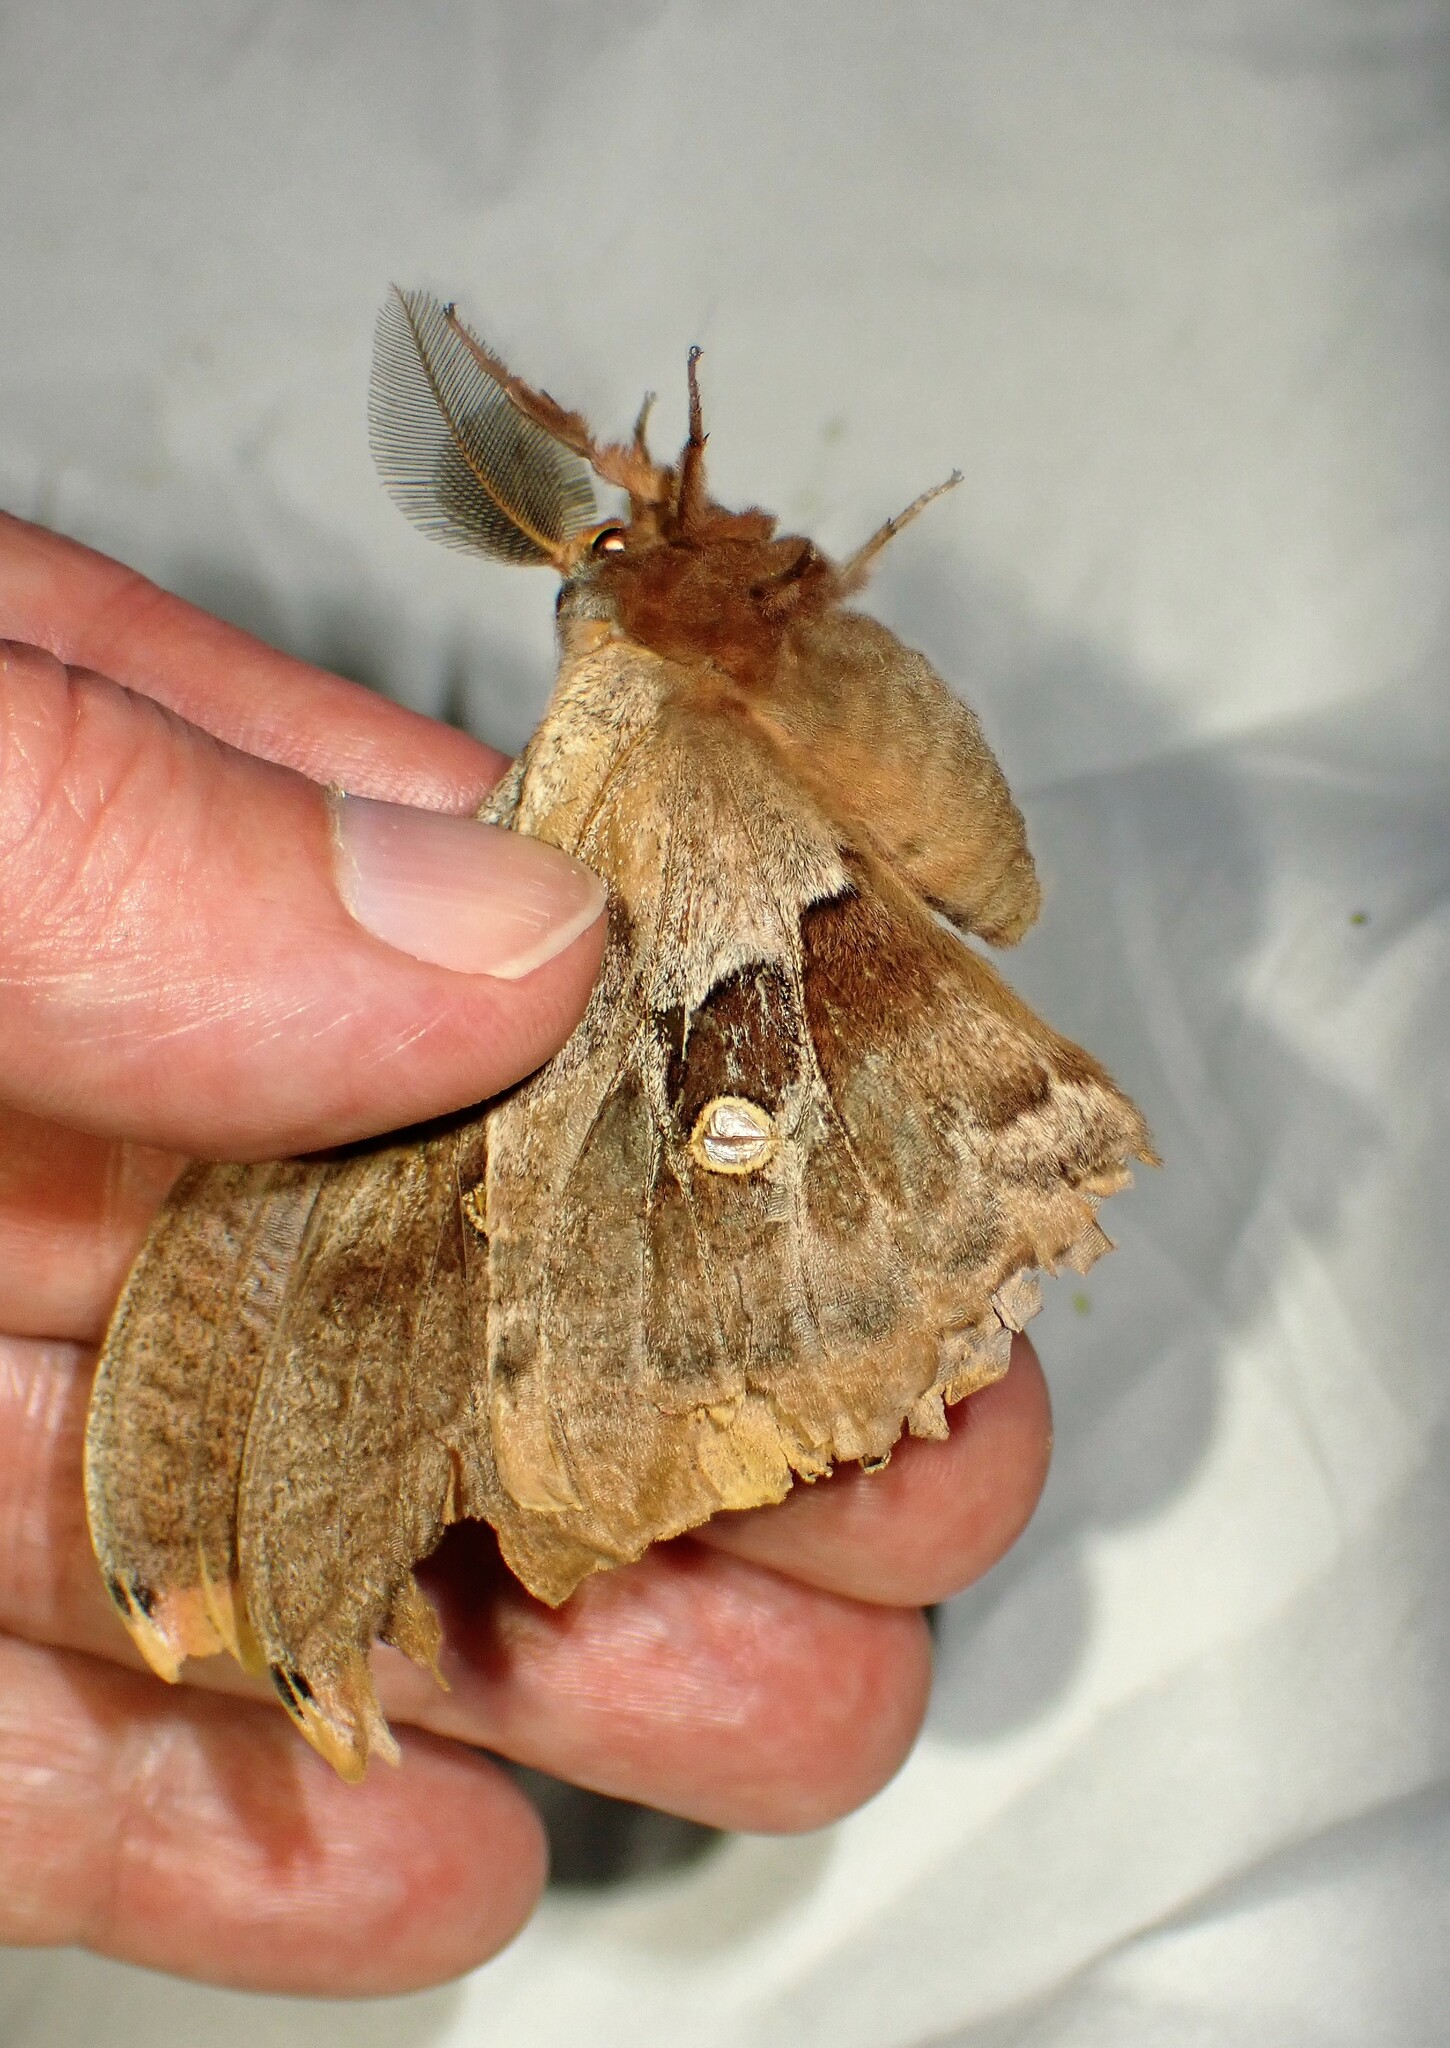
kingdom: Animalia
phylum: Arthropoda
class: Insecta
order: Lepidoptera
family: Saturniidae
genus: Antheraea
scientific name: Antheraea polyphemus
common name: Polyphemus moth
